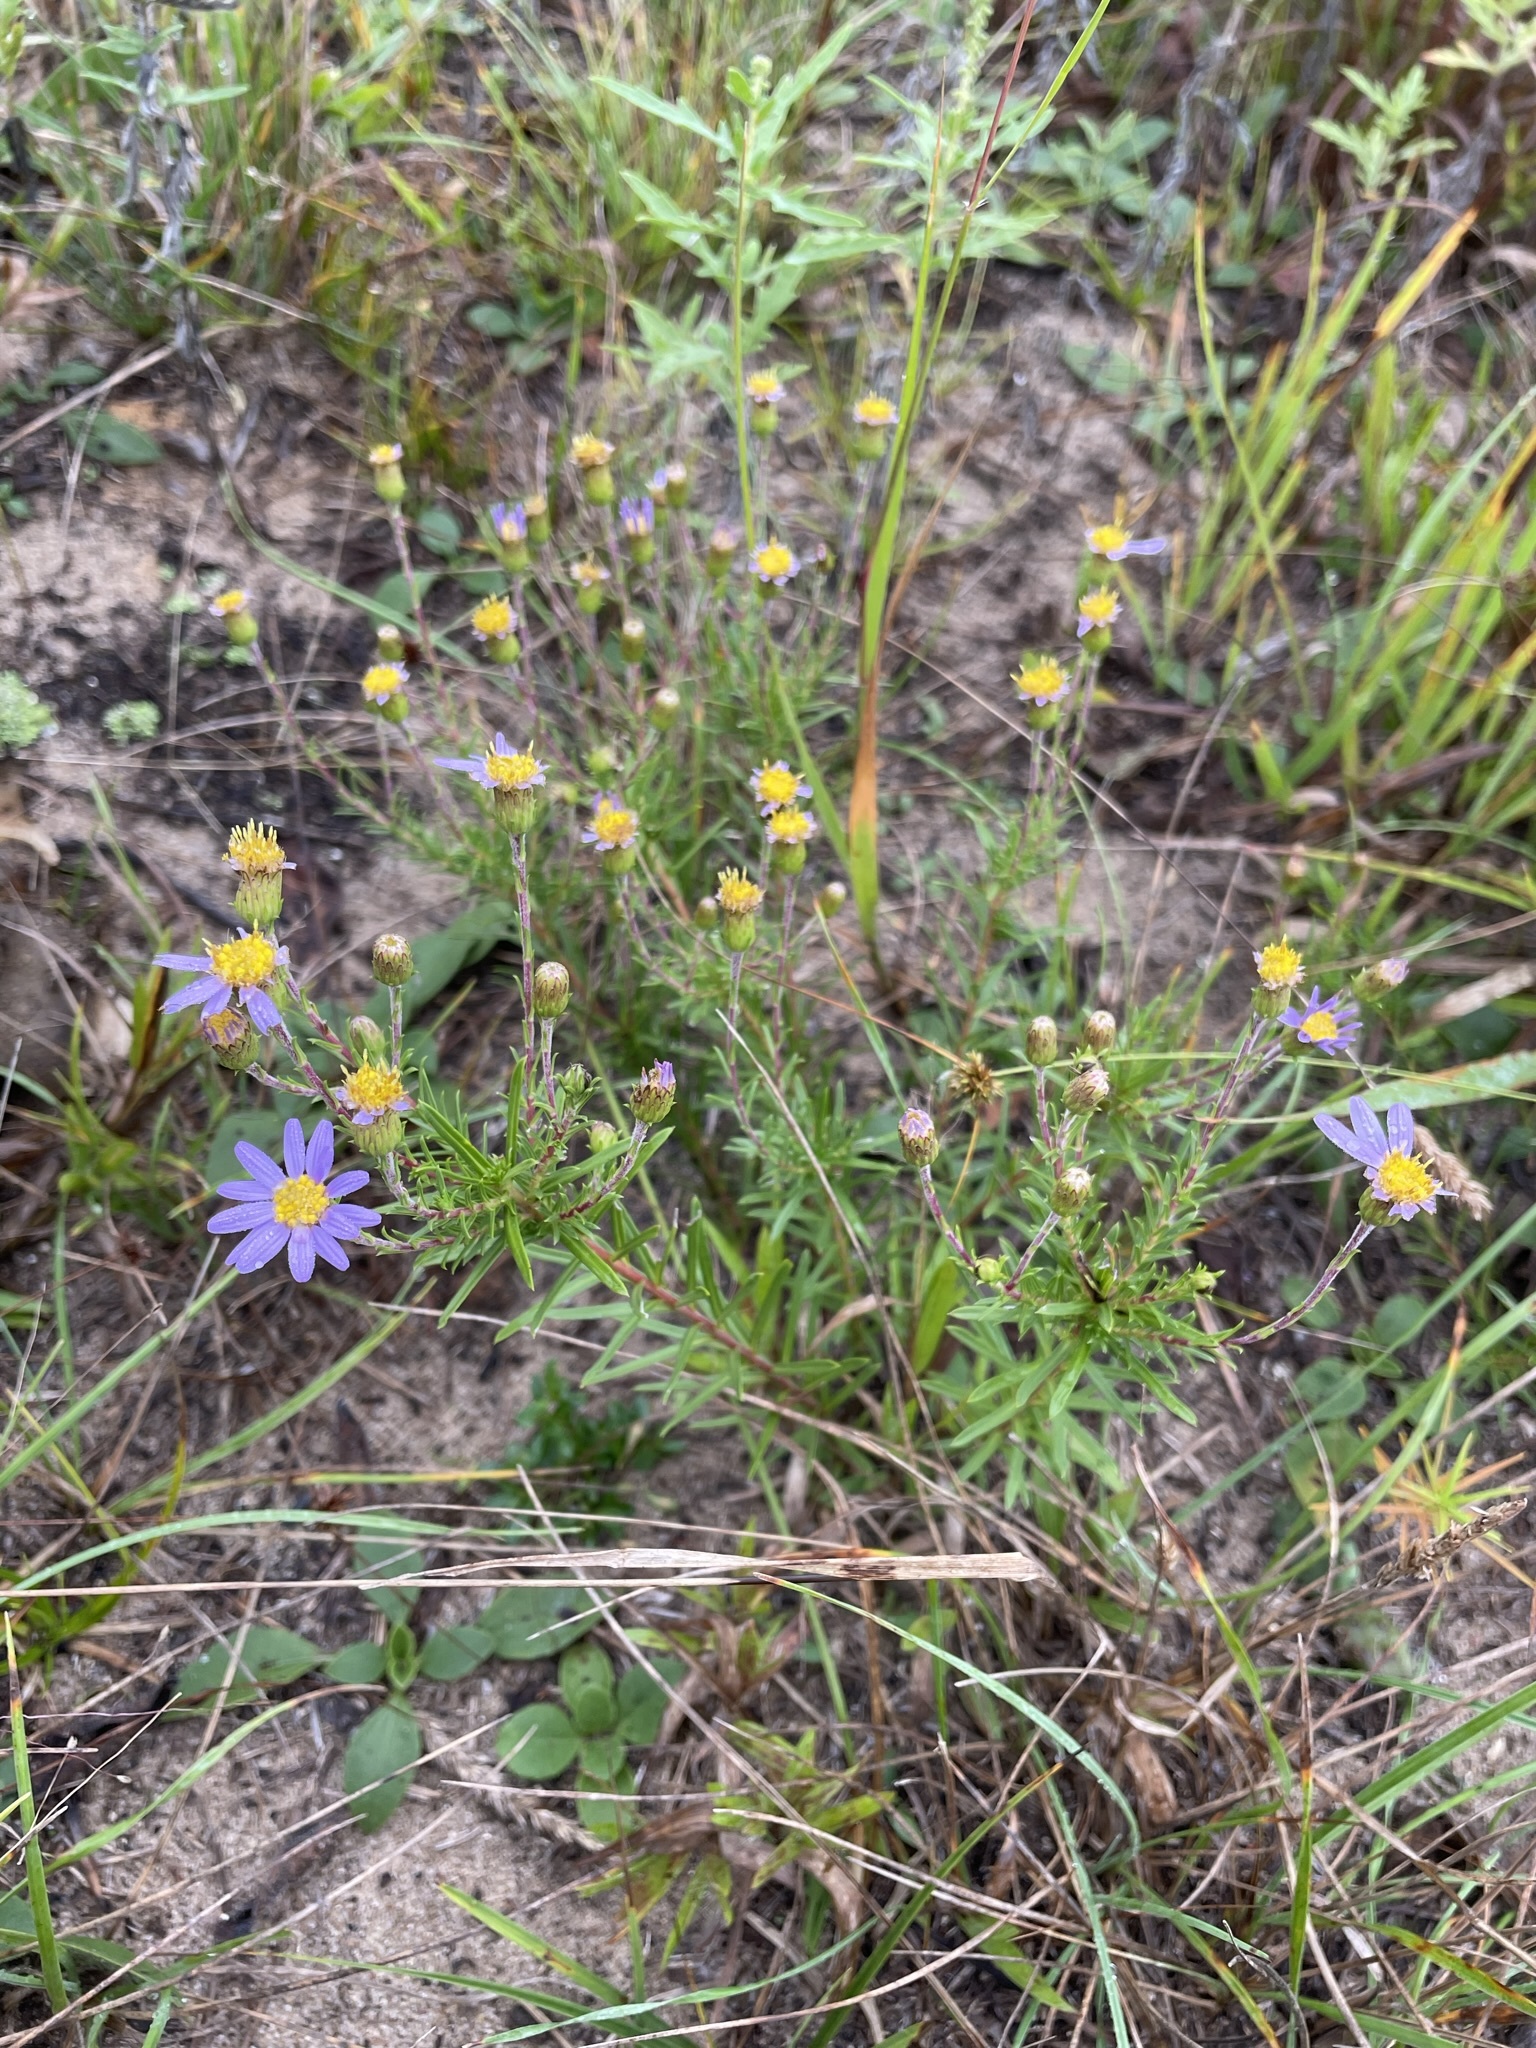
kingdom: Plantae
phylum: Tracheophyta
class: Magnoliopsida
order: Asterales
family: Asteraceae
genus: Ionactis
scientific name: Ionactis linariifolia
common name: Flax-leaf aster
